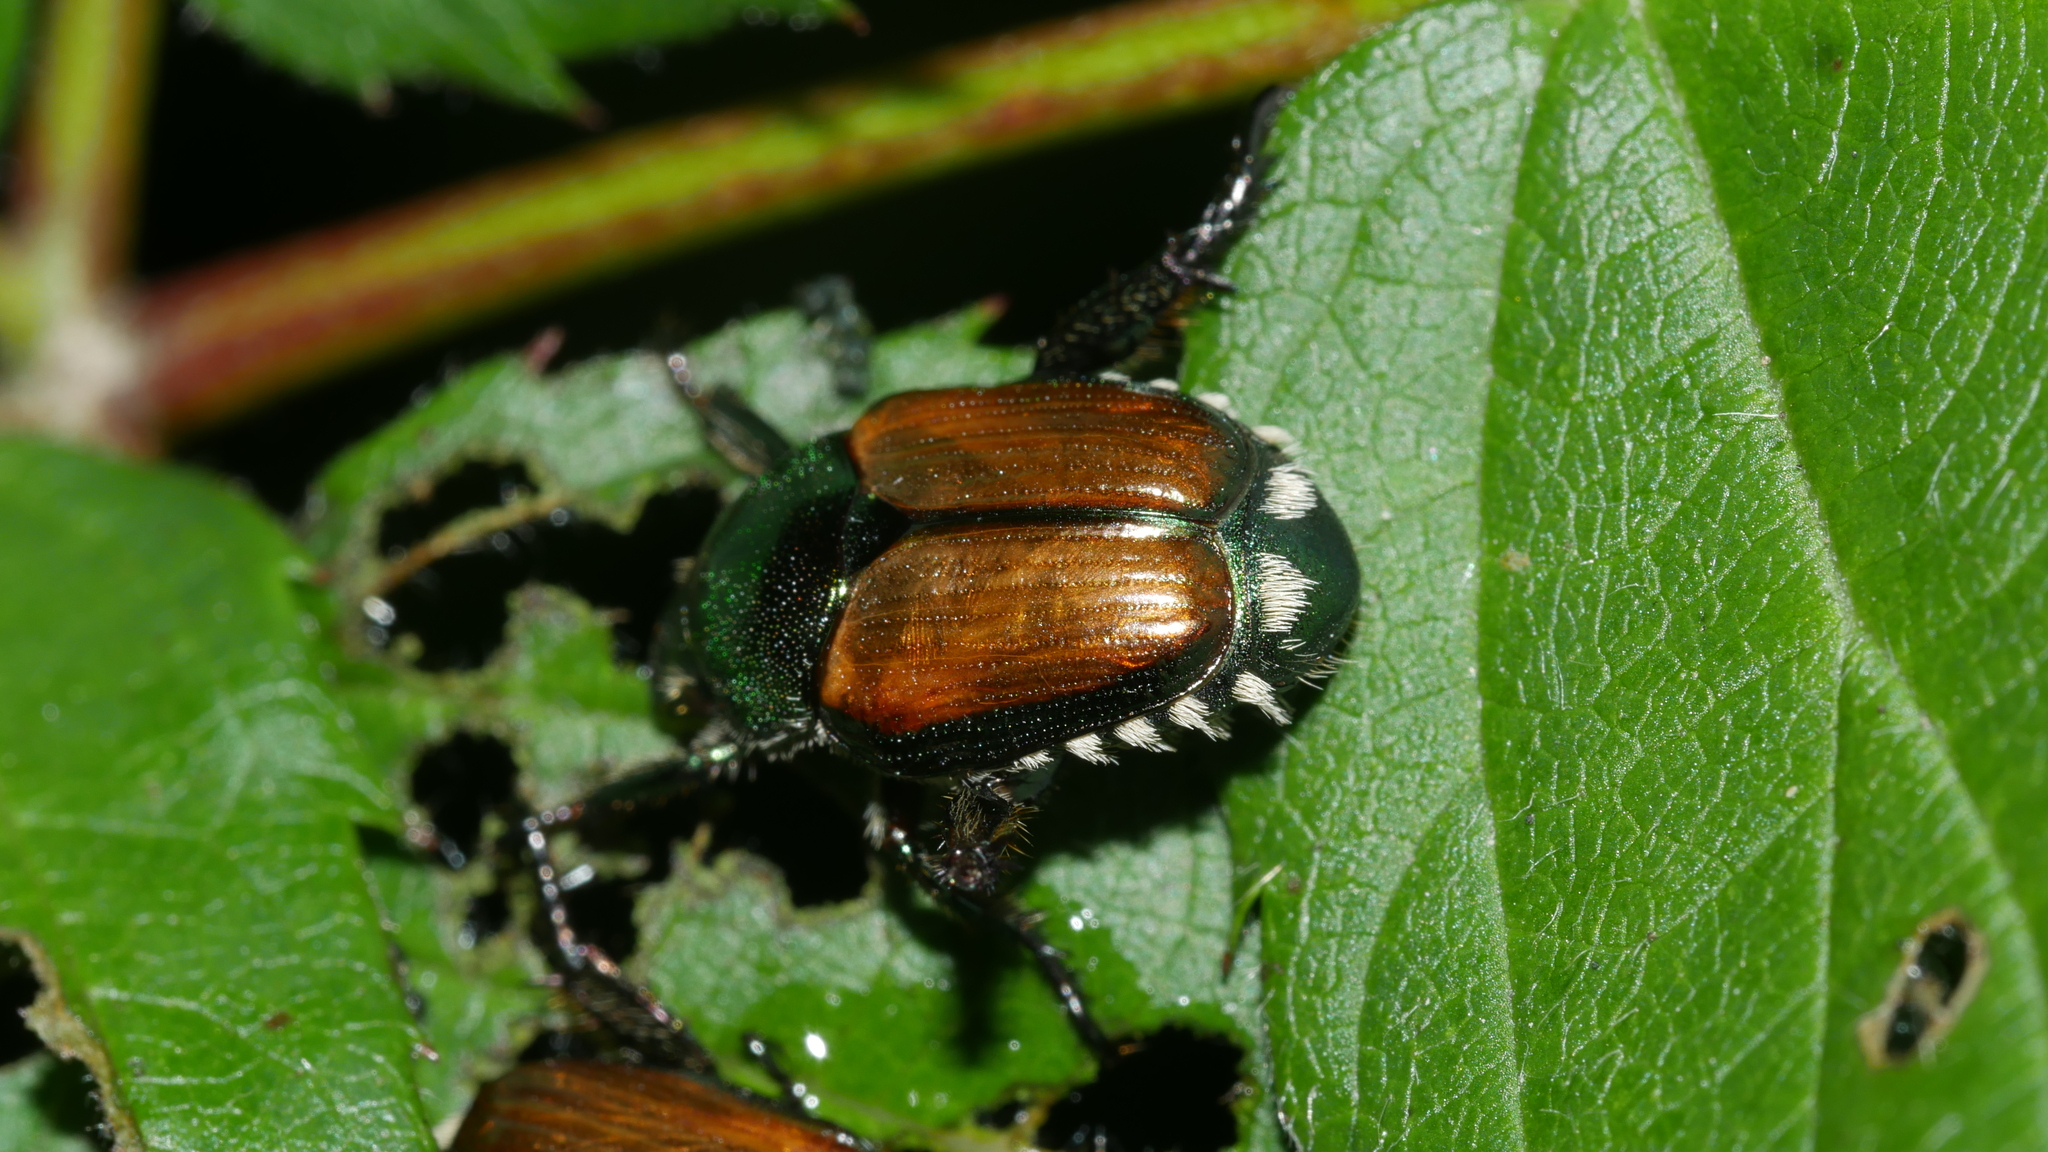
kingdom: Animalia
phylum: Arthropoda
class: Insecta
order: Coleoptera
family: Scarabaeidae
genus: Popillia
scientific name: Popillia japonica
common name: Japanese beetle
